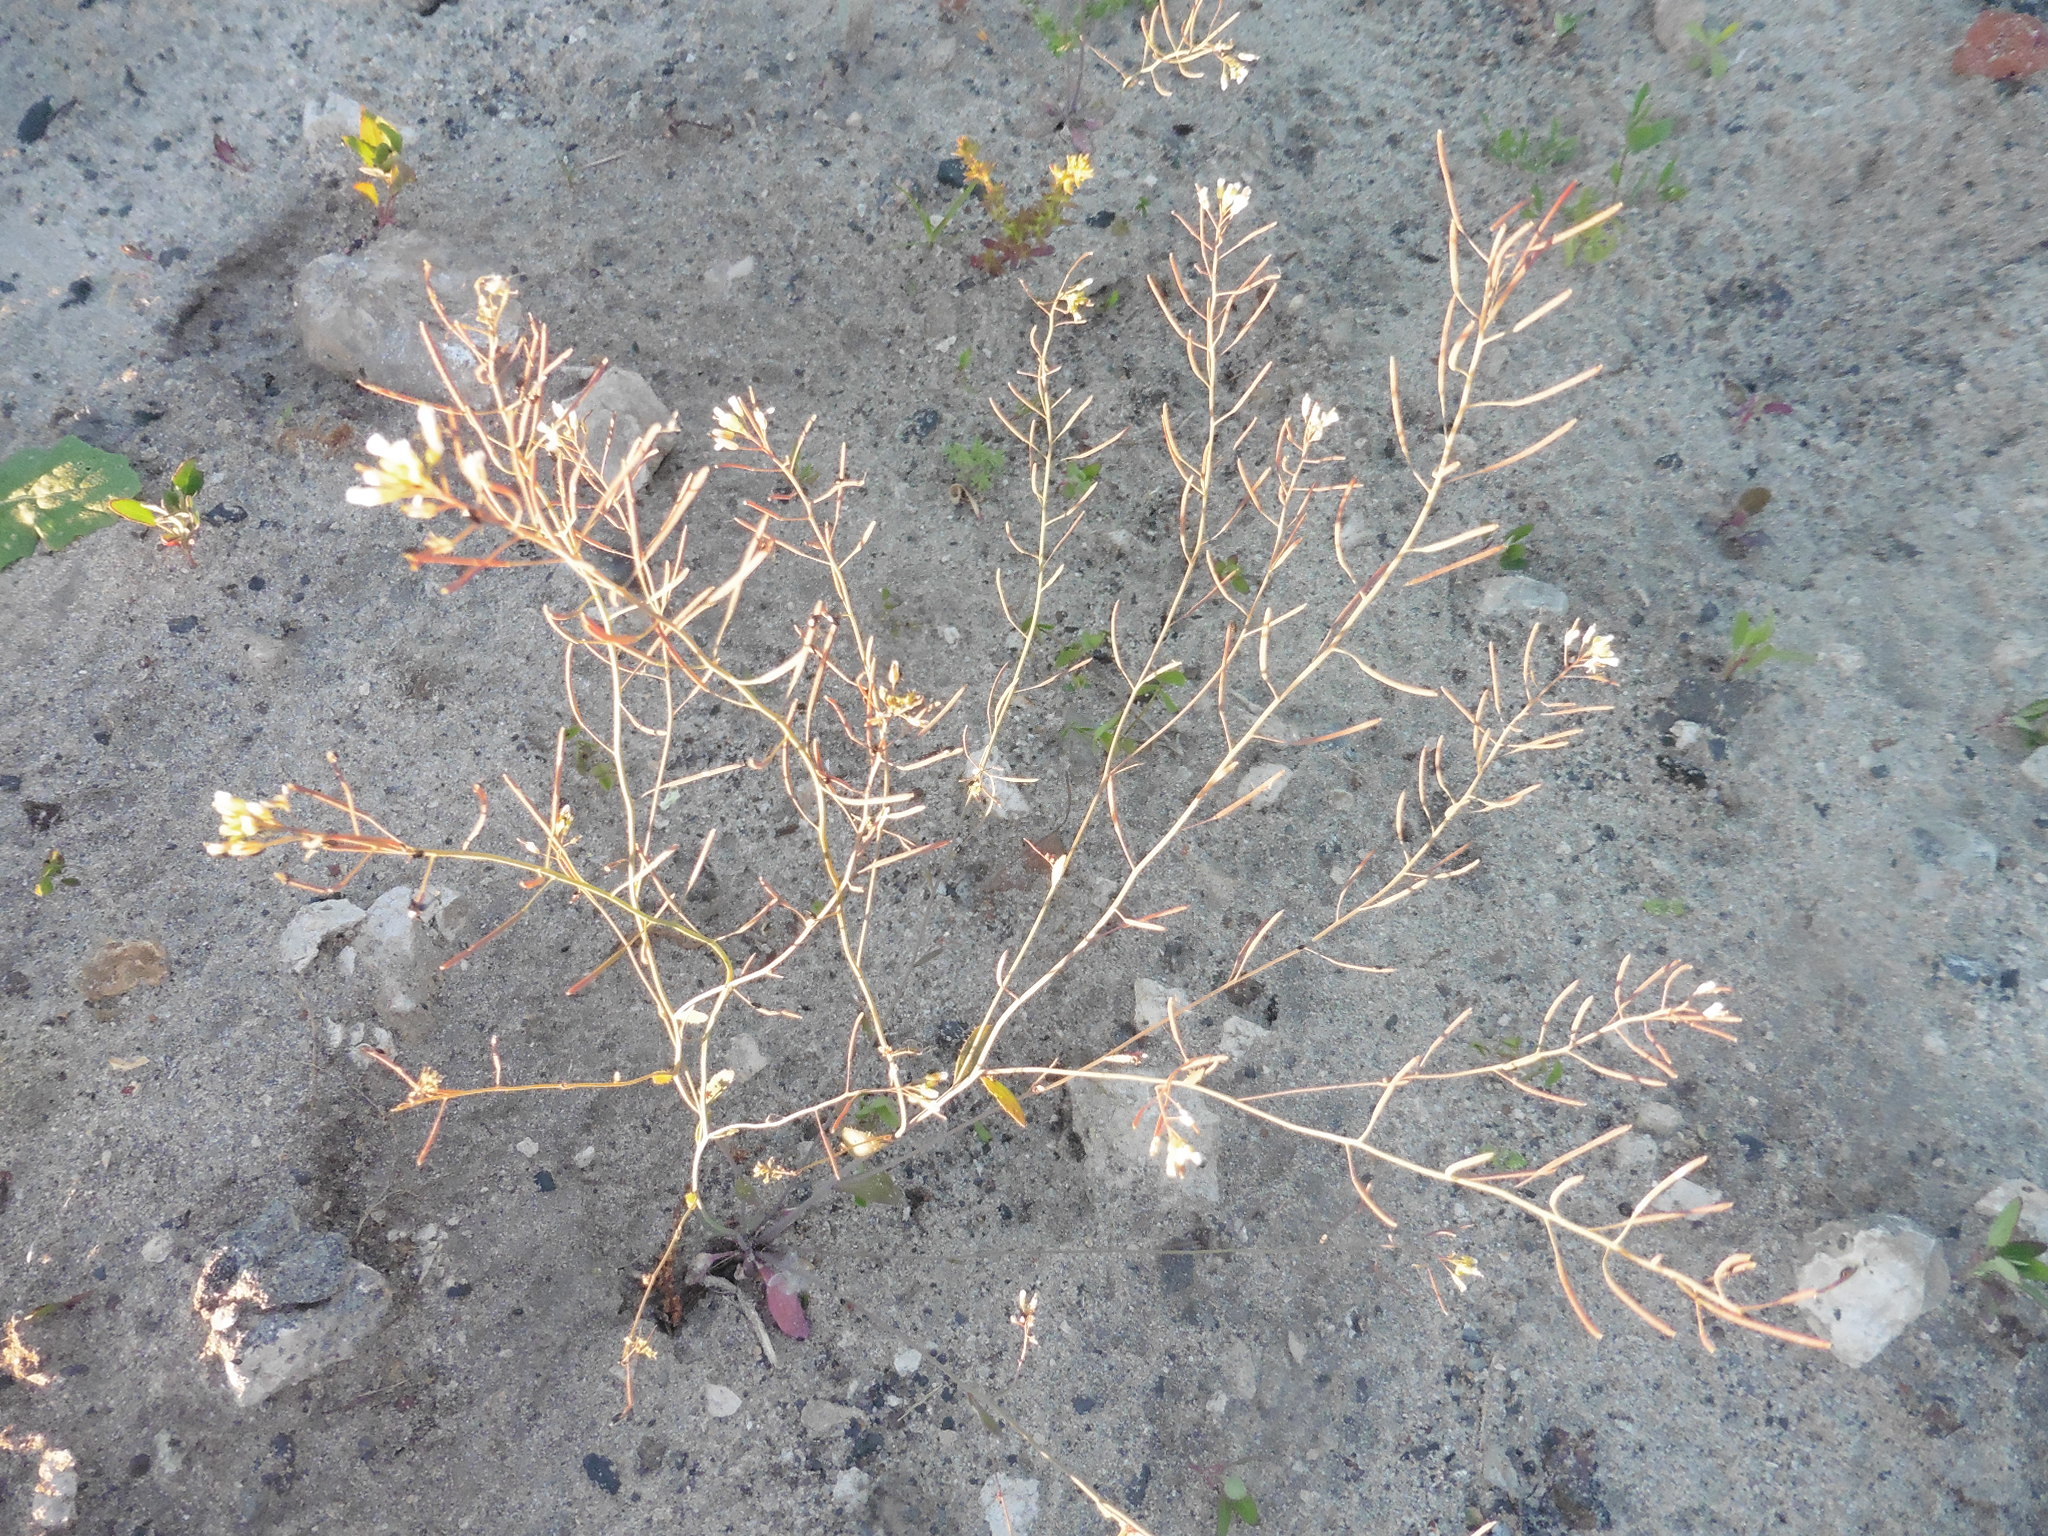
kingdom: Plantae
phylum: Tracheophyta
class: Magnoliopsida
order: Brassicales
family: Brassicaceae
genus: Arabidopsis
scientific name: Arabidopsis thaliana
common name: Thale cress
